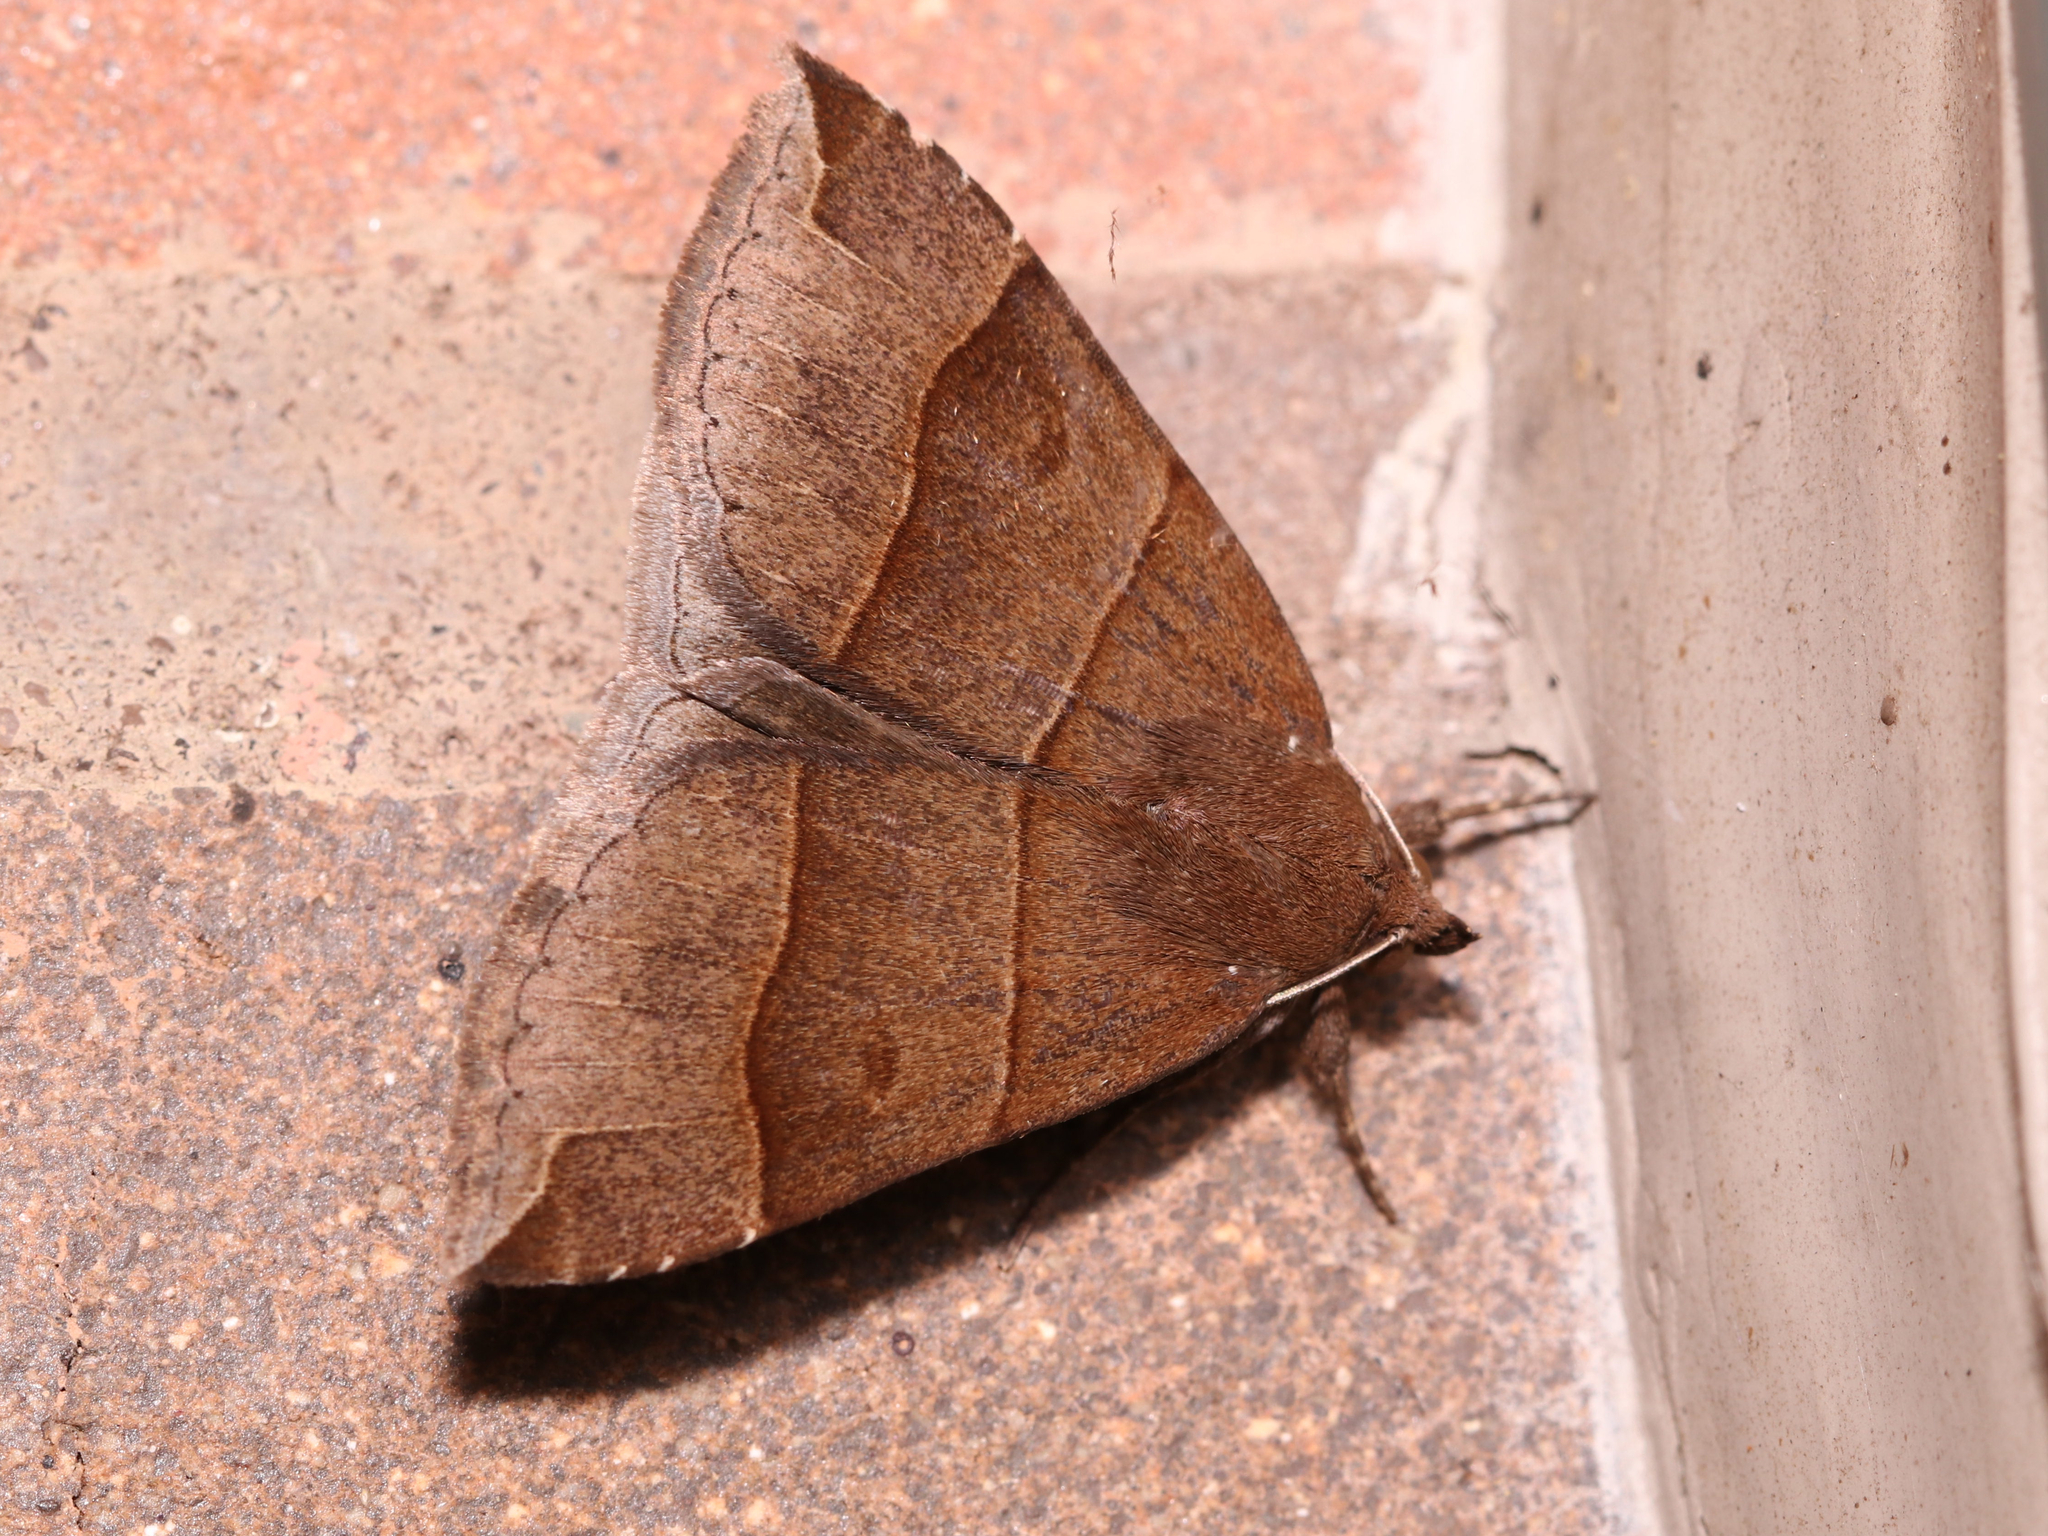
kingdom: Animalia
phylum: Arthropoda
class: Insecta
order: Lepidoptera
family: Erebidae
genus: Parallelia
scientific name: Parallelia bistriaris
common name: Maple looper moth
